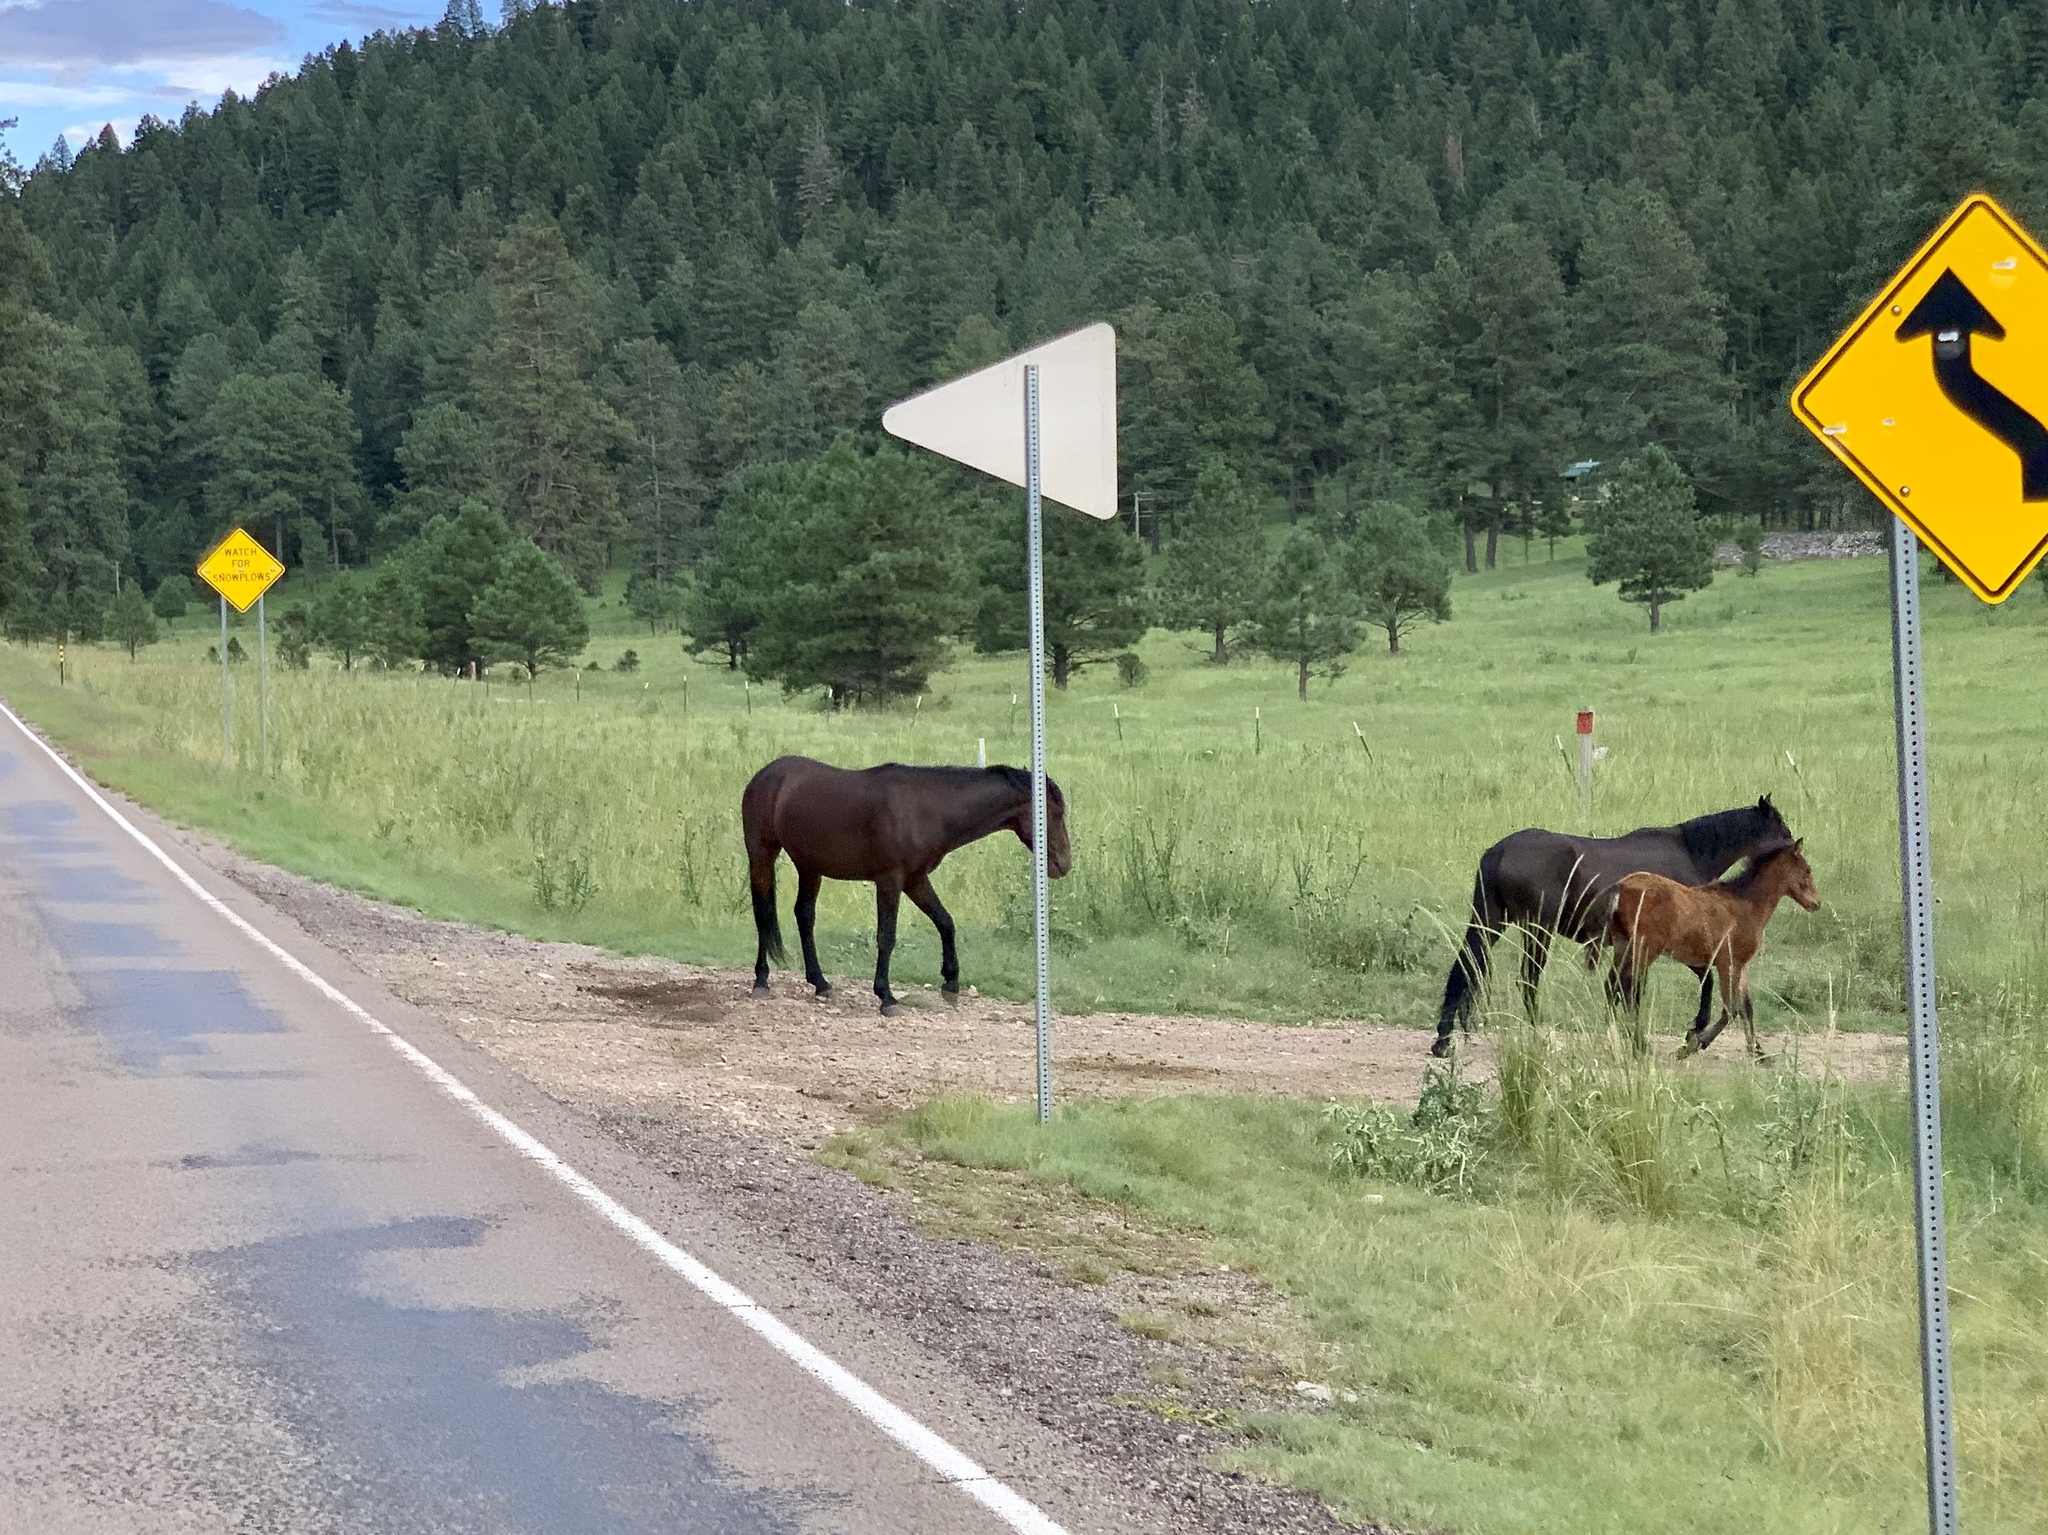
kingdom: Animalia
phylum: Chordata
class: Mammalia
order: Perissodactyla
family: Equidae
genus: Equus
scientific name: Equus caballus
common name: Horse
